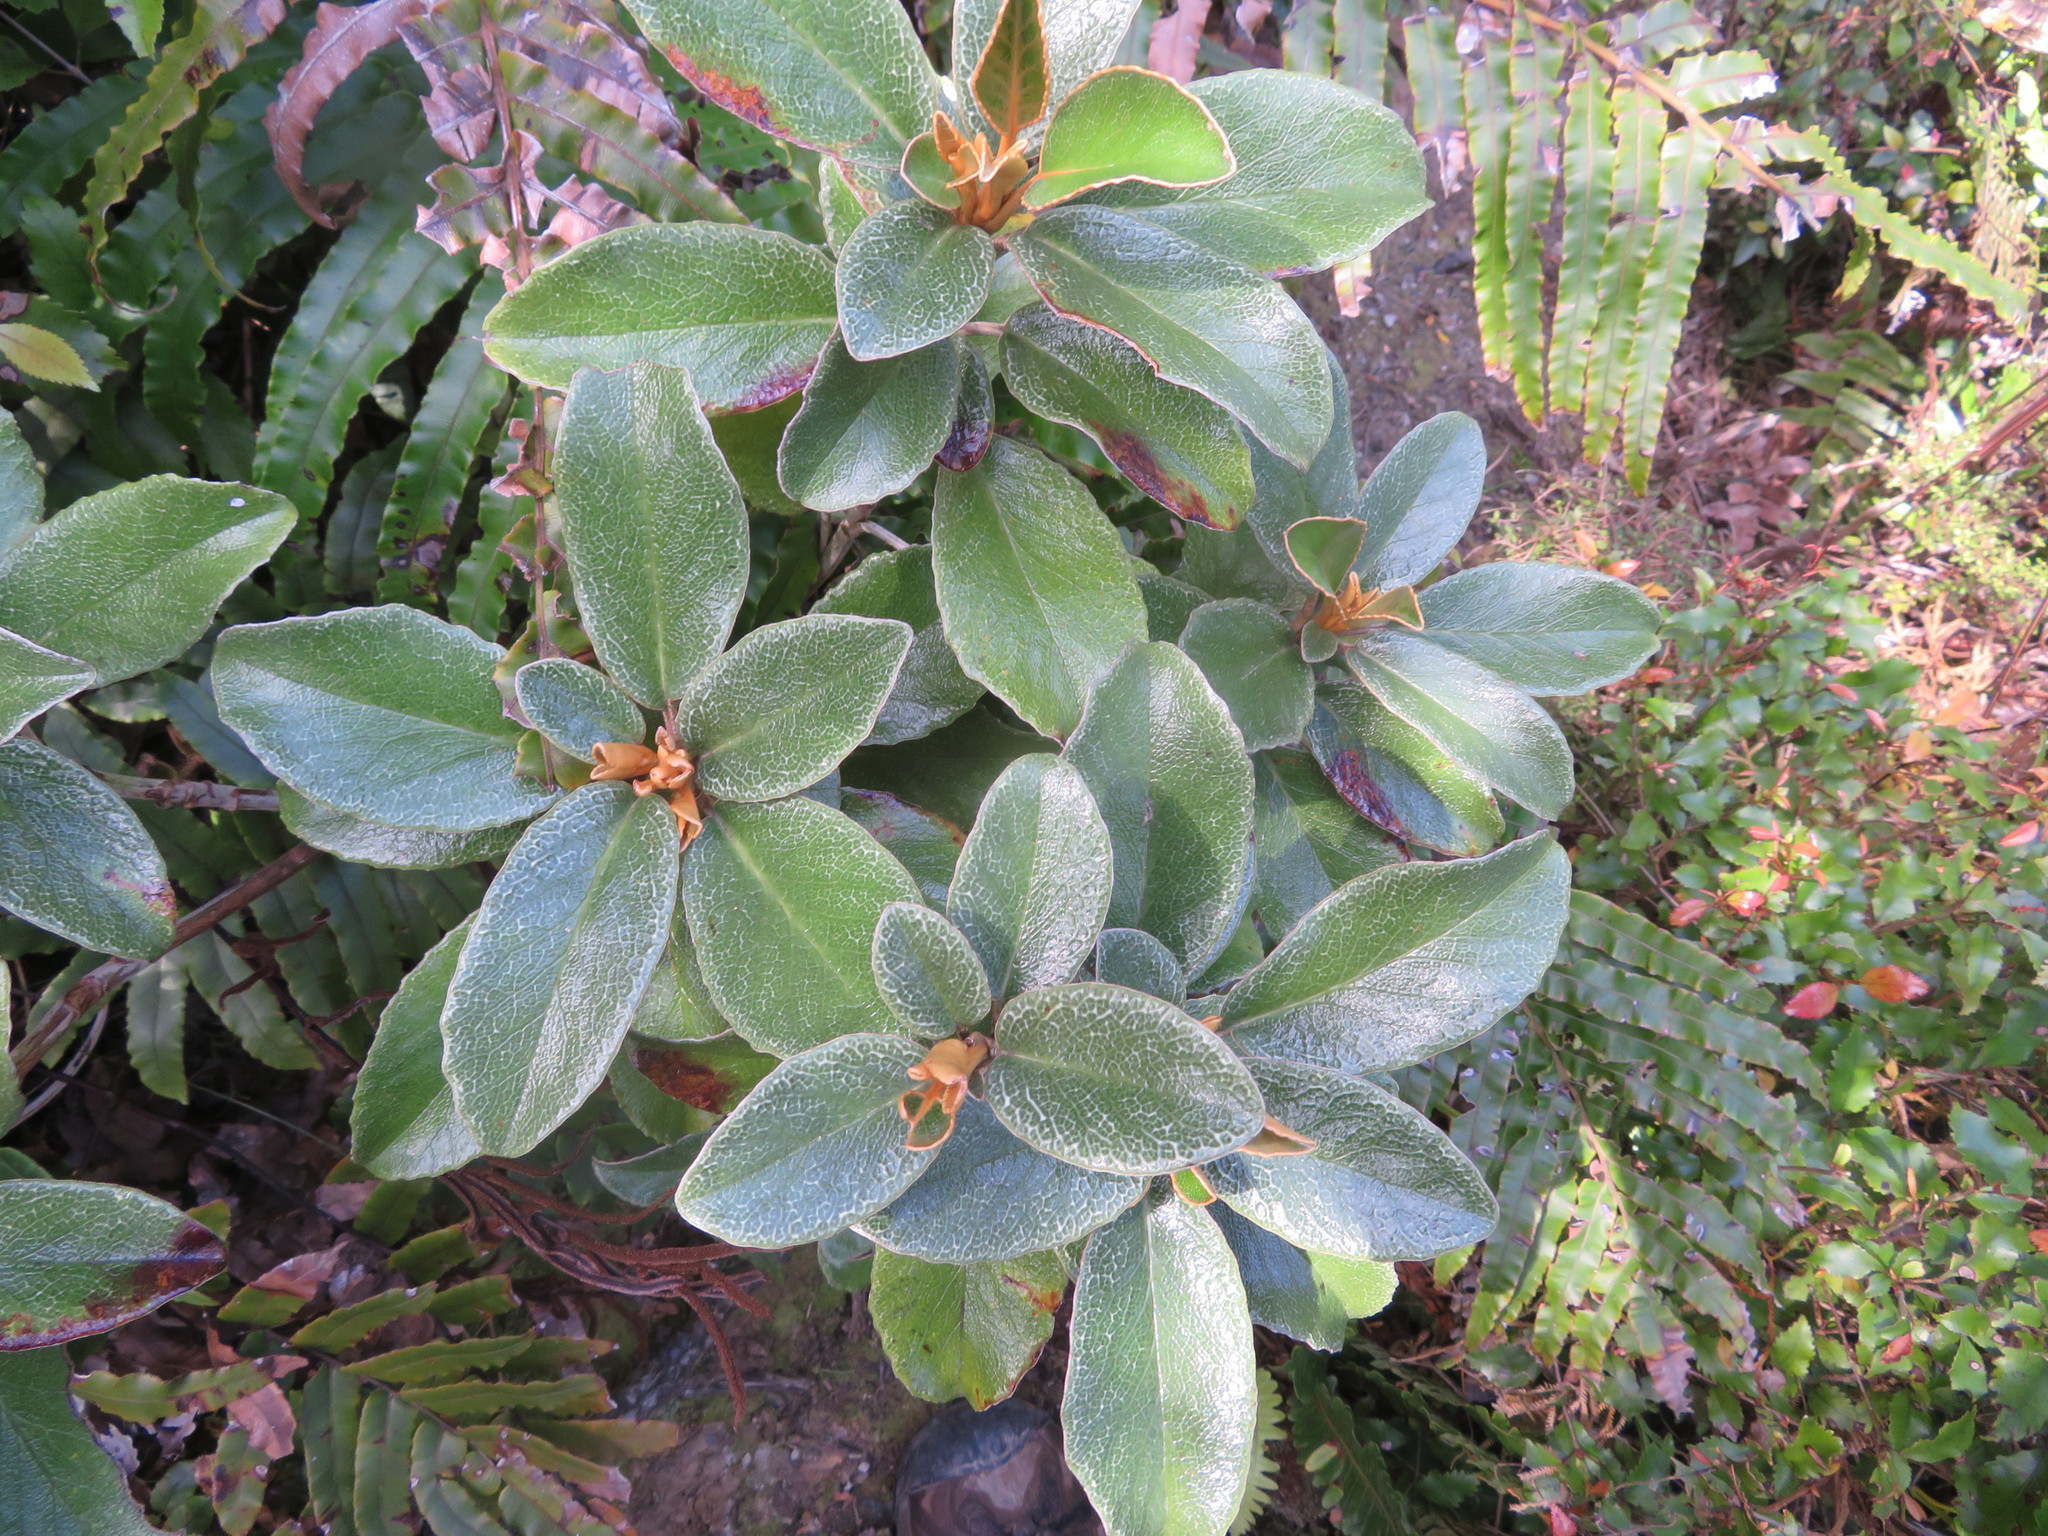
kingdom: Plantae
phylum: Tracheophyta
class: Magnoliopsida
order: Asterales
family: Asteraceae
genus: Brachyglottis
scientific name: Brachyglottis elaeagnifolia
